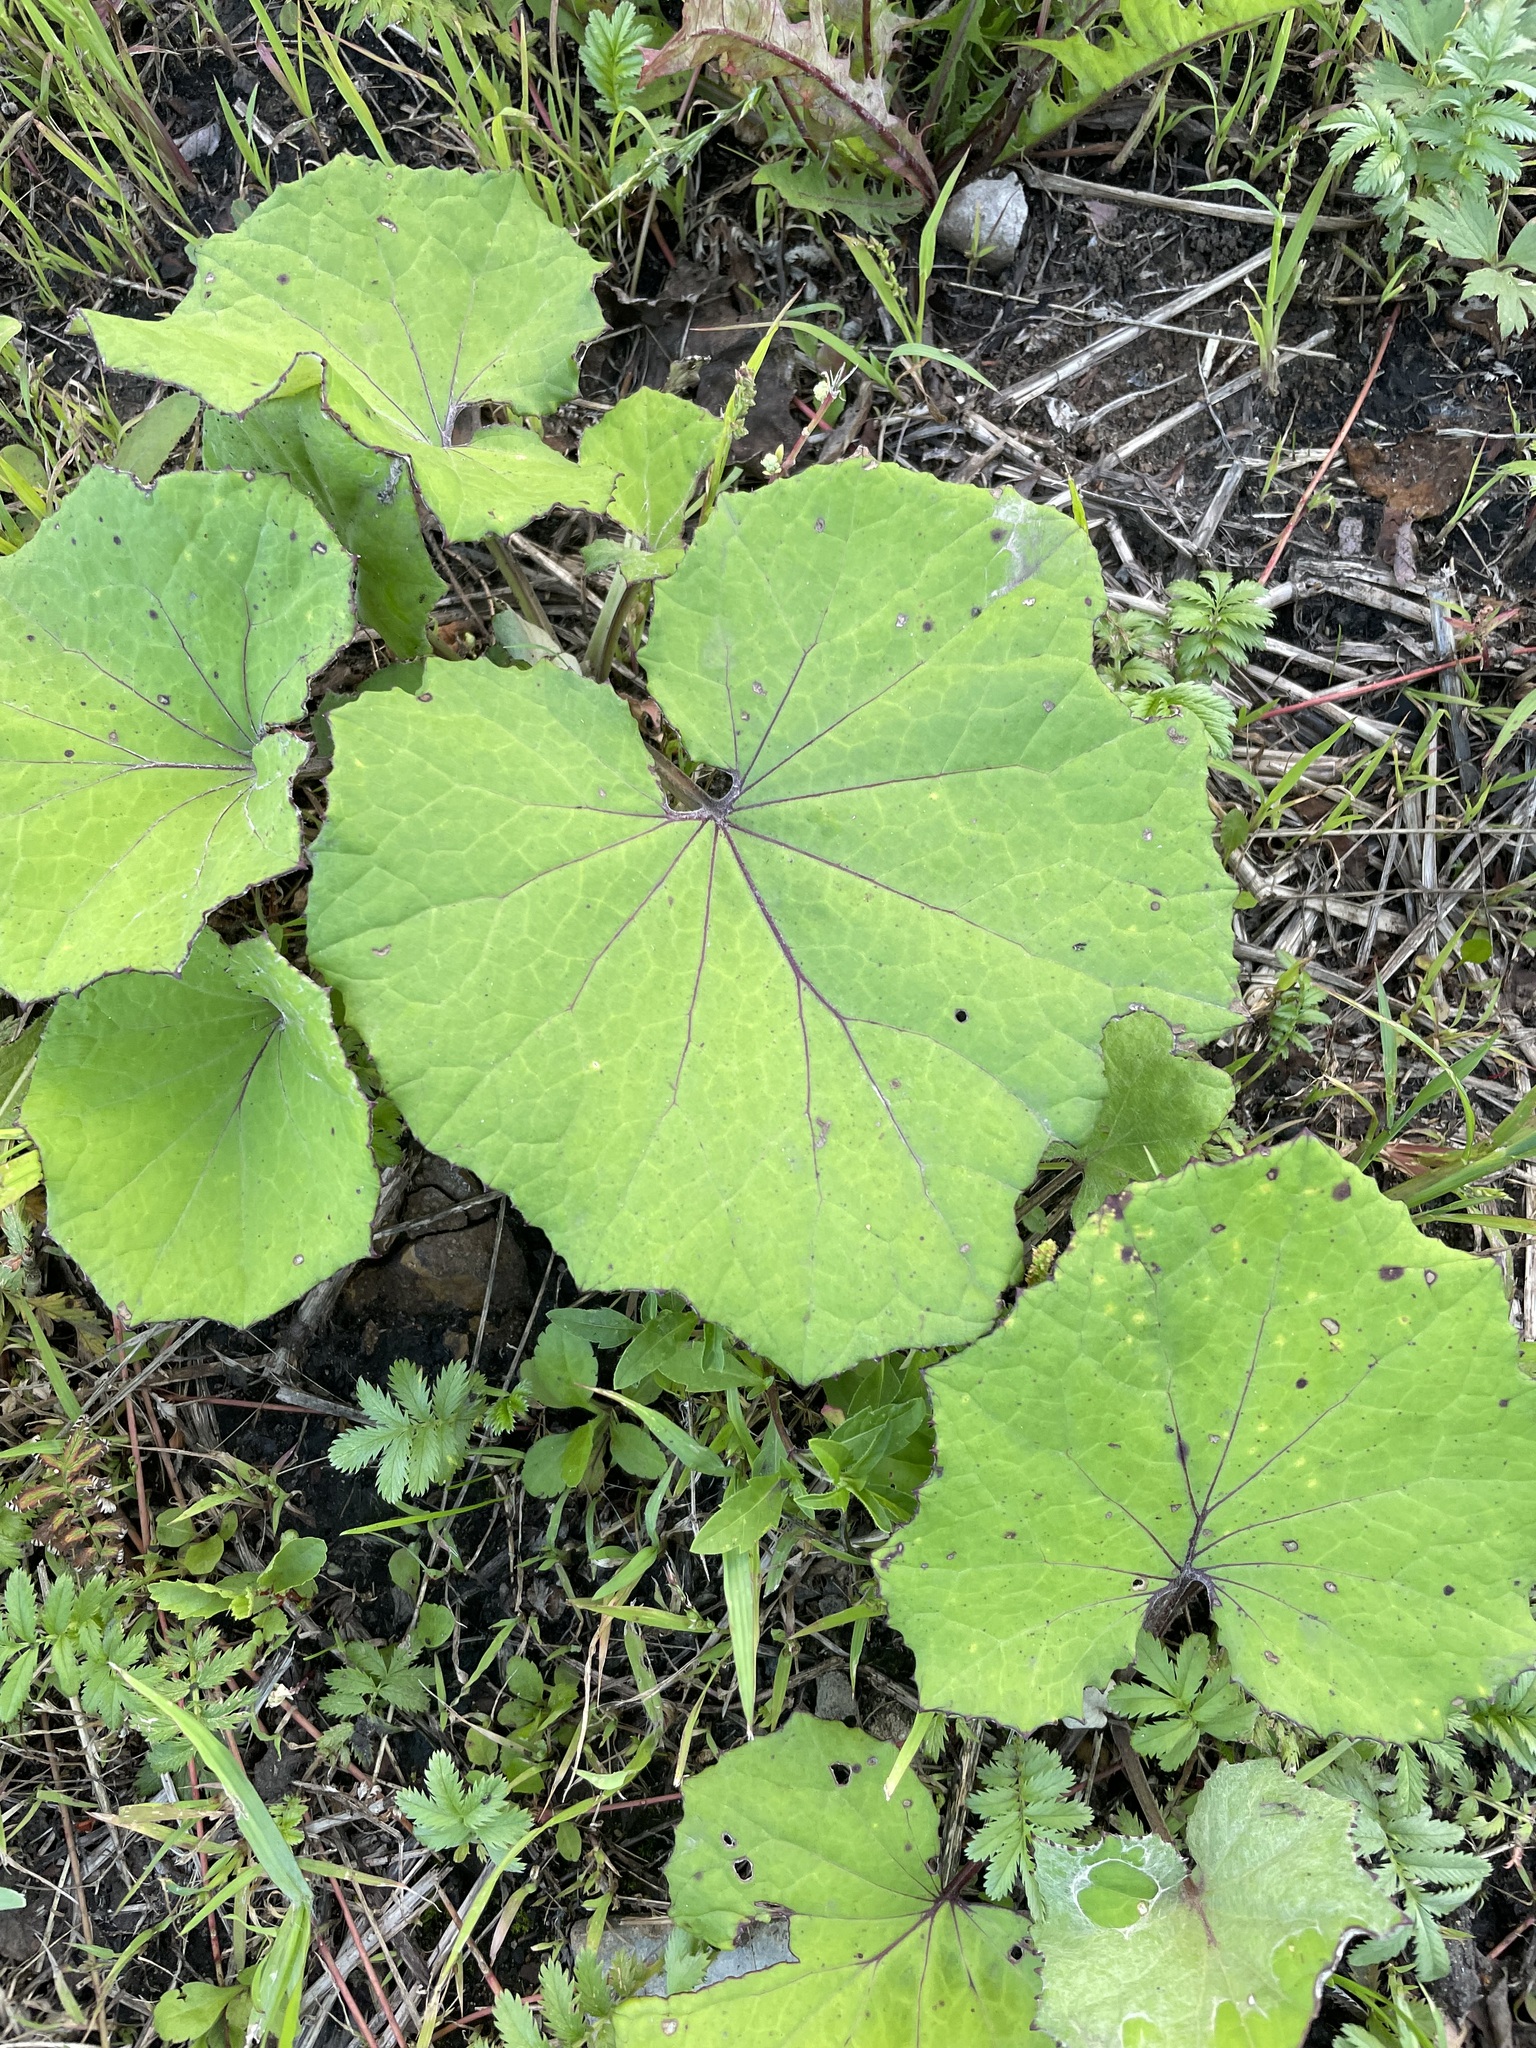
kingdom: Plantae
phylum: Tracheophyta
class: Magnoliopsida
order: Asterales
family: Asteraceae
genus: Tussilago
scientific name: Tussilago farfara
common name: Coltsfoot
